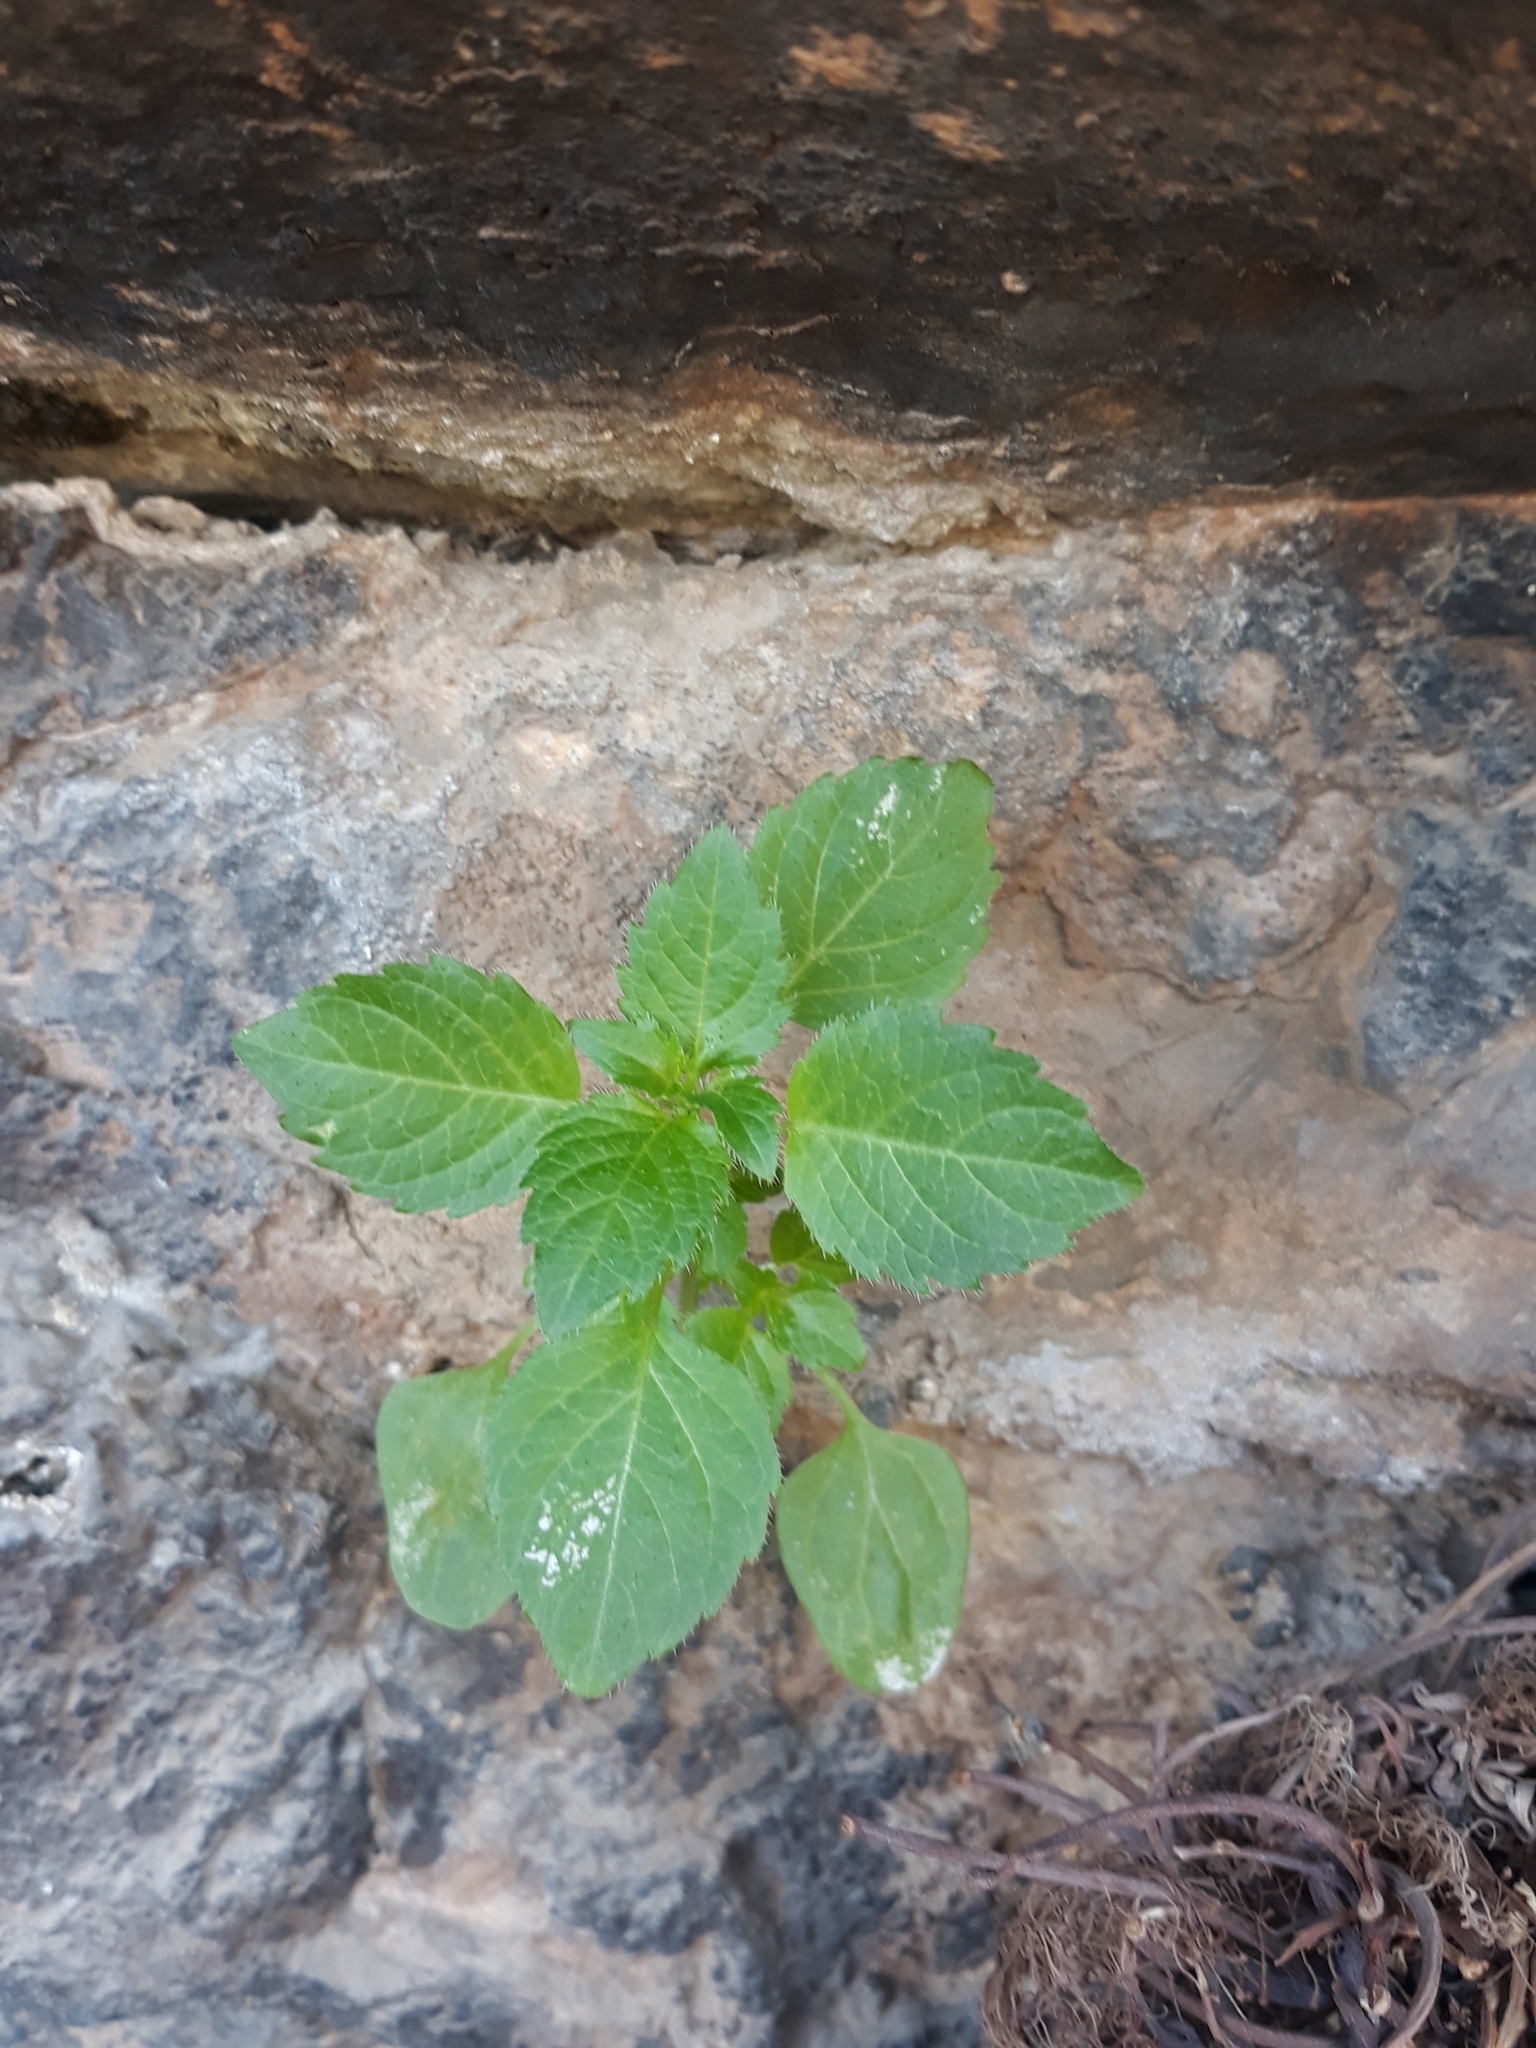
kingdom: Plantae
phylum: Tracheophyta
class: Magnoliopsida
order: Malpighiales
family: Euphorbiaceae
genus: Mercurialis
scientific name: Mercurialis annua
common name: Annual mercury
